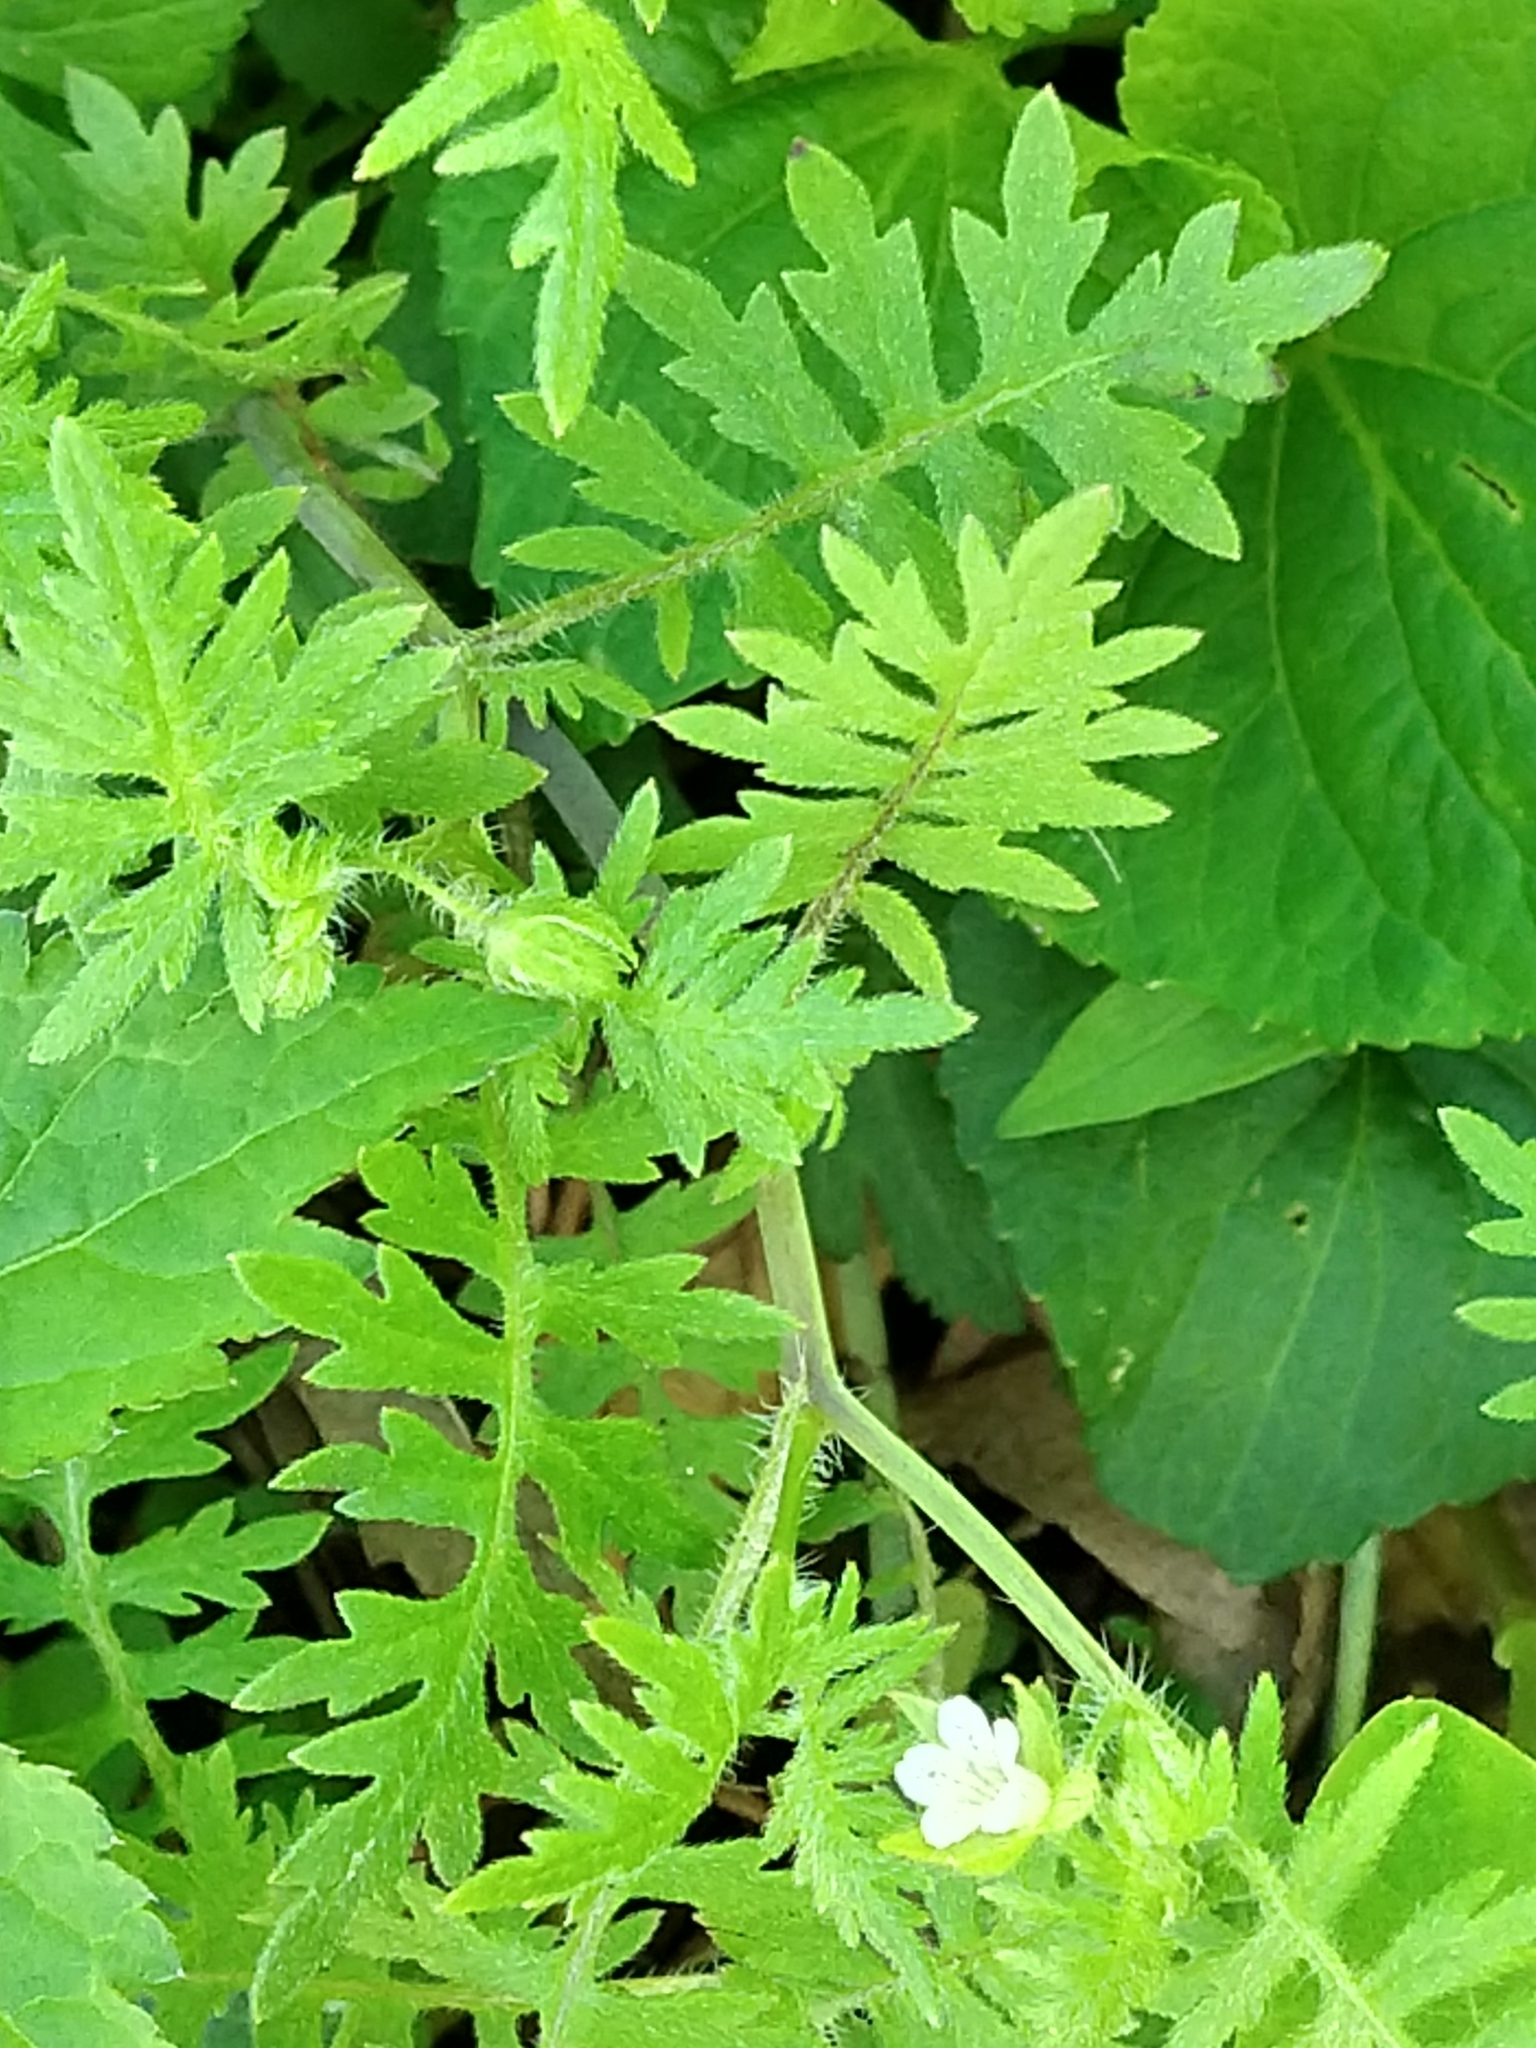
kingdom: Plantae
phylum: Tracheophyta
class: Magnoliopsida
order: Boraginales
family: Hydrophyllaceae
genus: Ellisia
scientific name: Ellisia nyctelea
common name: Aunt lucy
